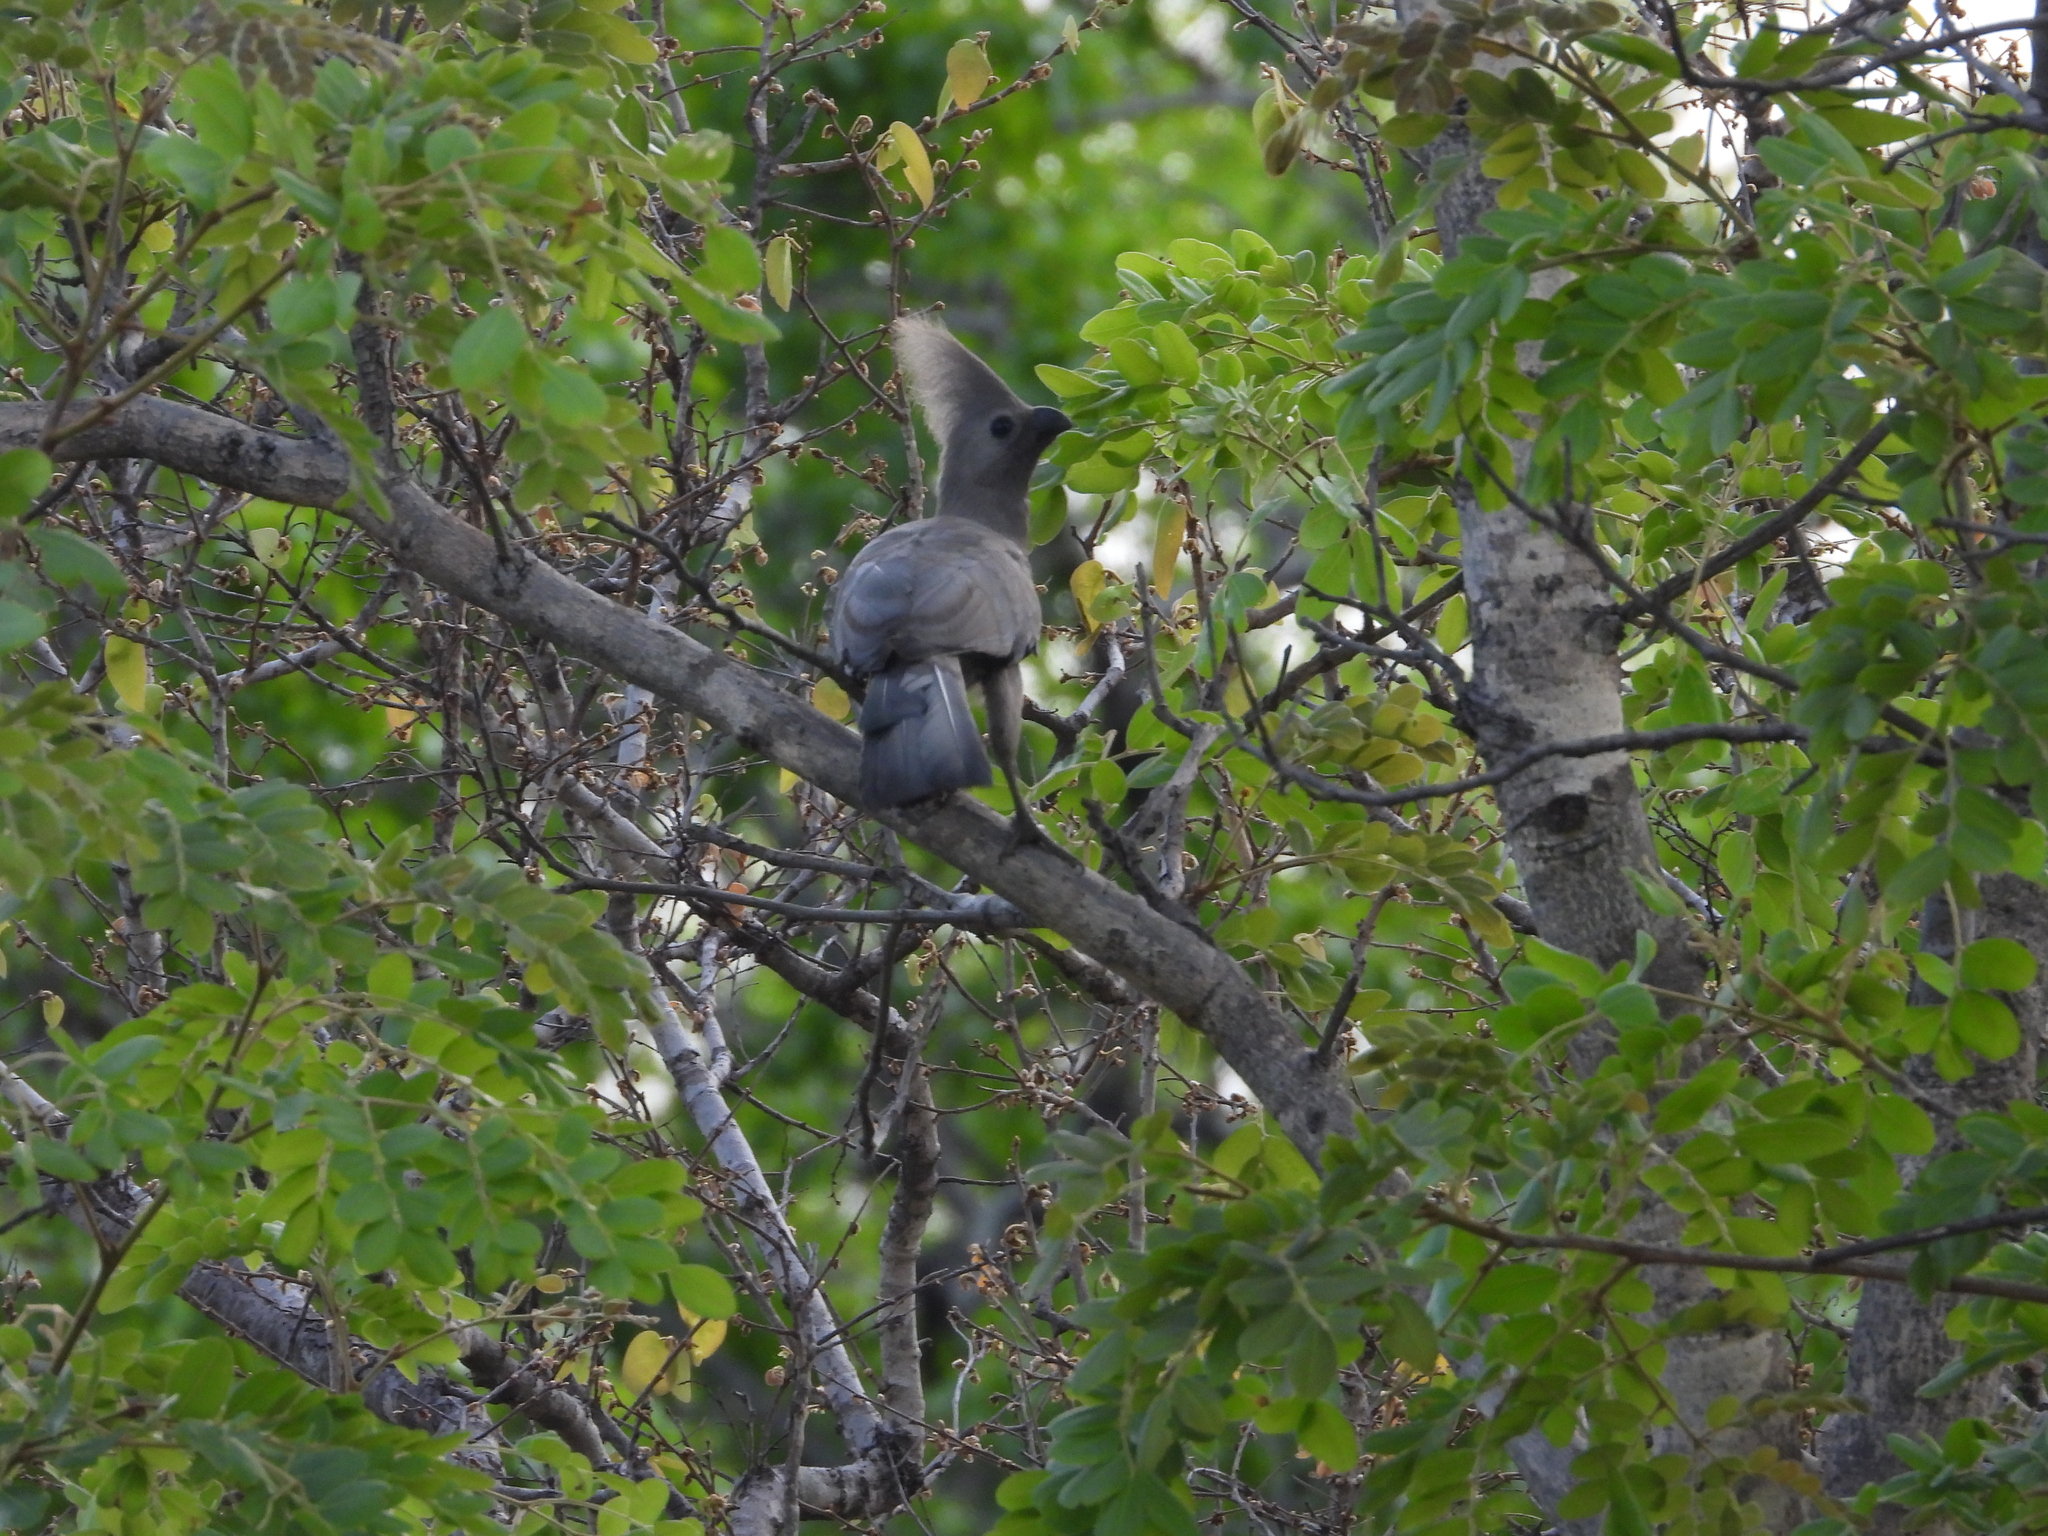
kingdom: Animalia
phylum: Chordata
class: Aves
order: Musophagiformes
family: Musophagidae
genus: Corythaixoides
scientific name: Corythaixoides concolor
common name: Grey go-away-bird
